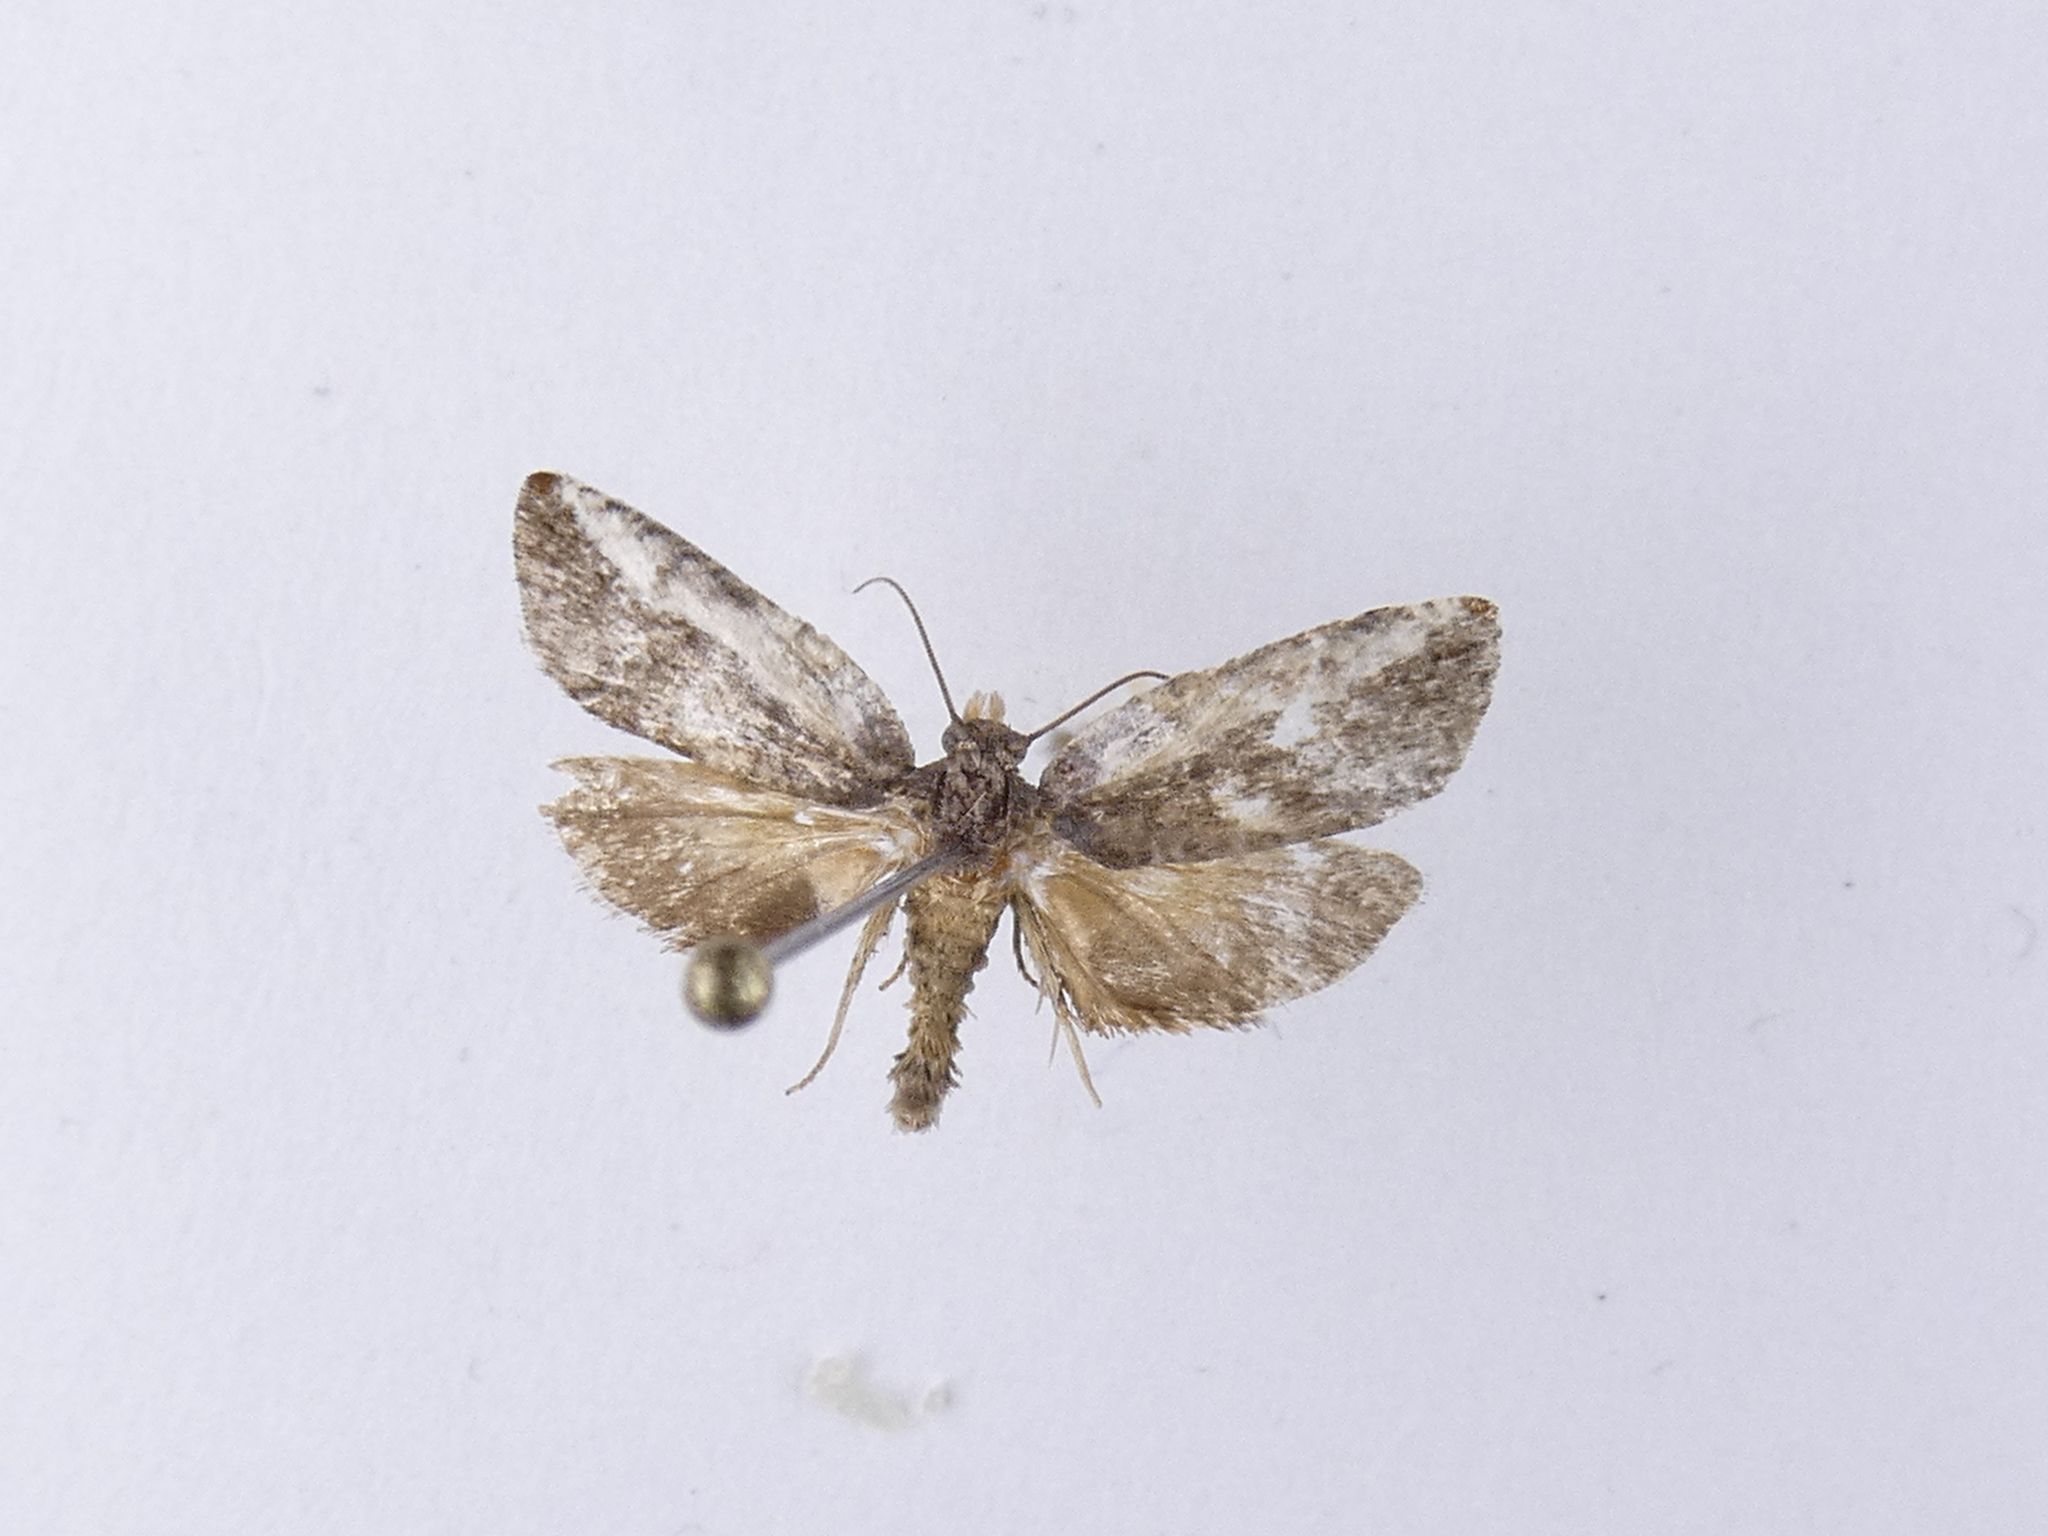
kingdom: Animalia
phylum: Arthropoda
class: Insecta
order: Lepidoptera
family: Tortricidae
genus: Argyroploce
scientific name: Argyroploce chlorosaris
